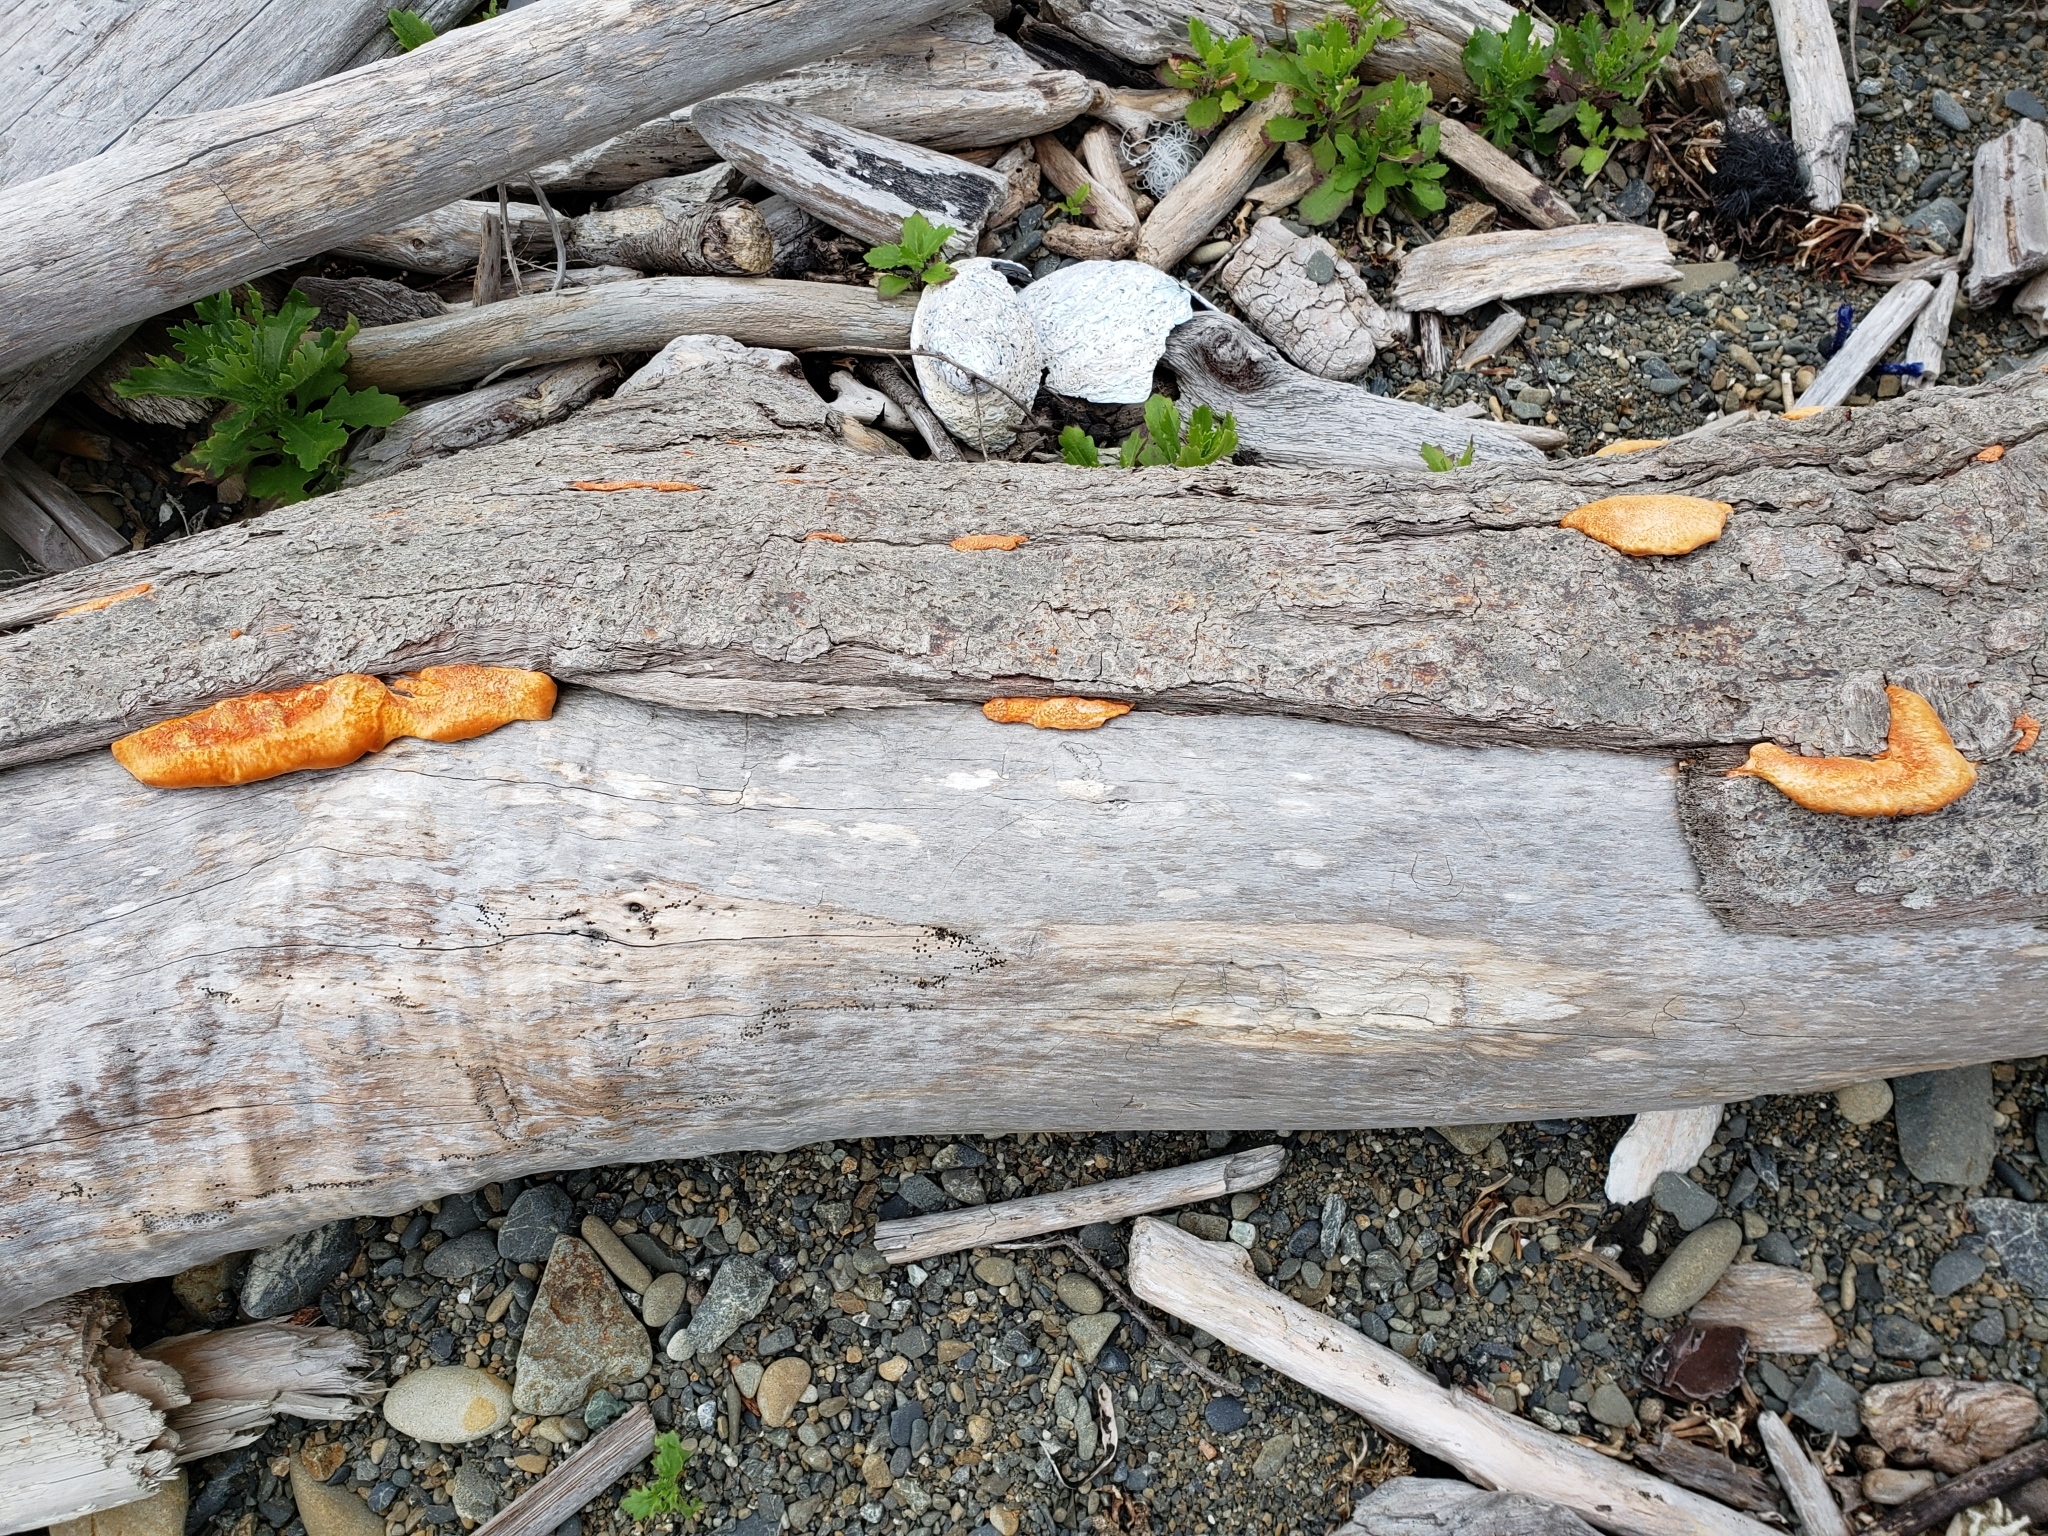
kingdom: Fungi
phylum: Basidiomycota
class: Agaricomycetes
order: Polyporales
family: Polyporaceae
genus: Trametes
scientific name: Trametes coccinea
